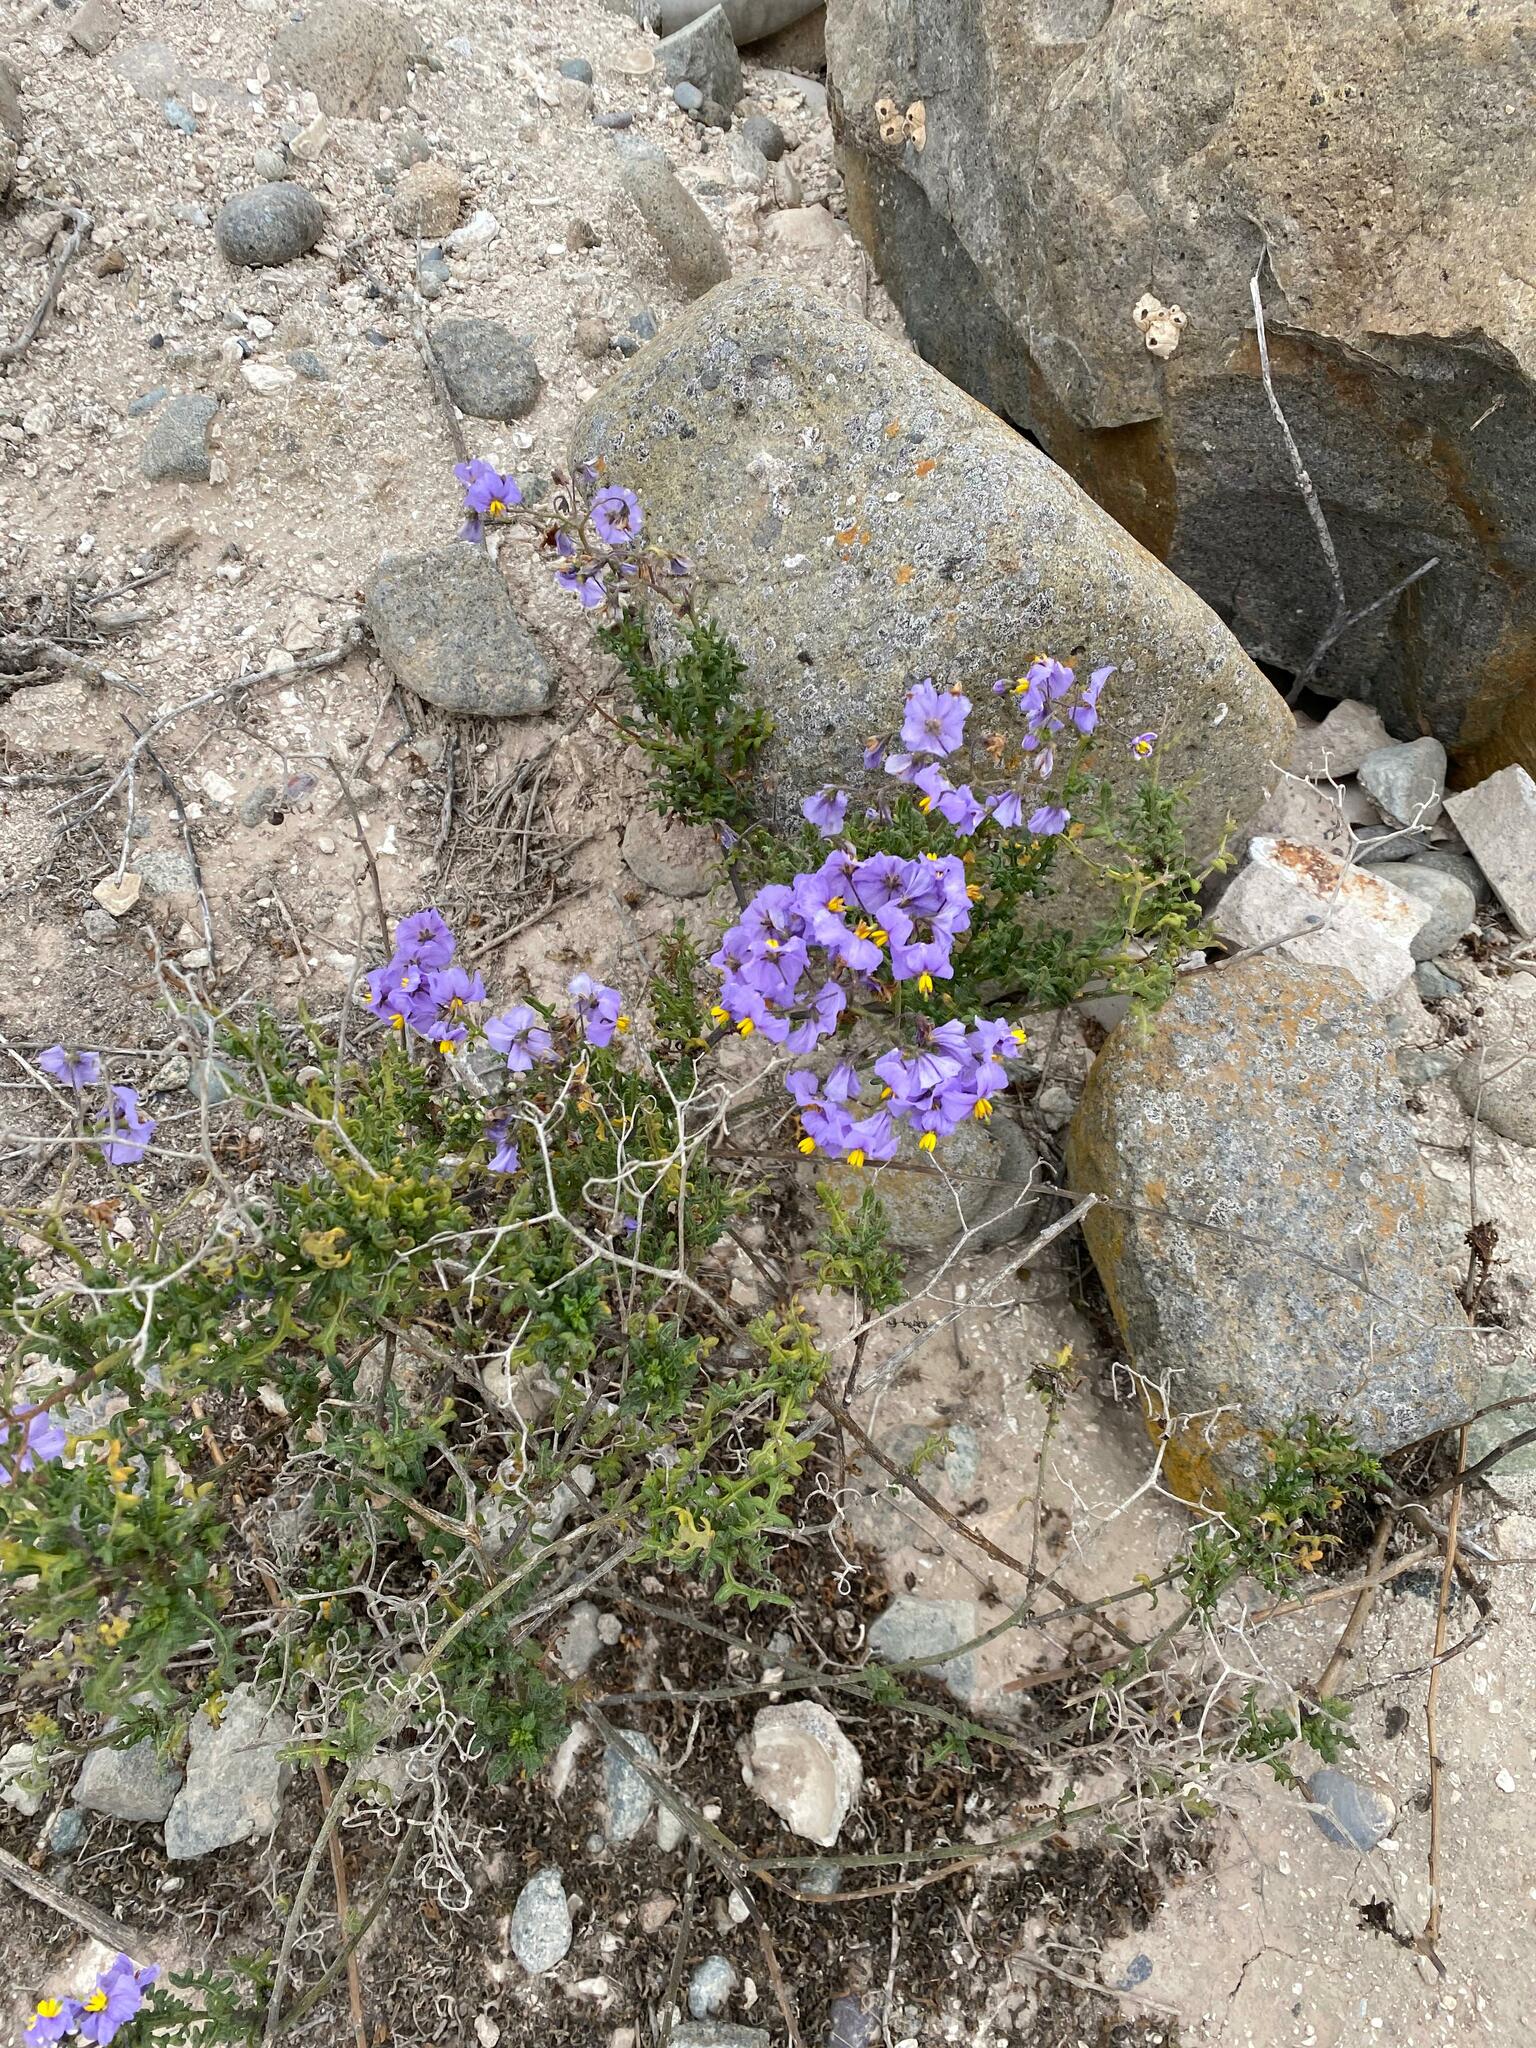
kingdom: Plantae
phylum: Tracheophyta
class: Magnoliopsida
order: Solanales
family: Solanaceae
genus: Solanum
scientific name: Solanum pinnatum
